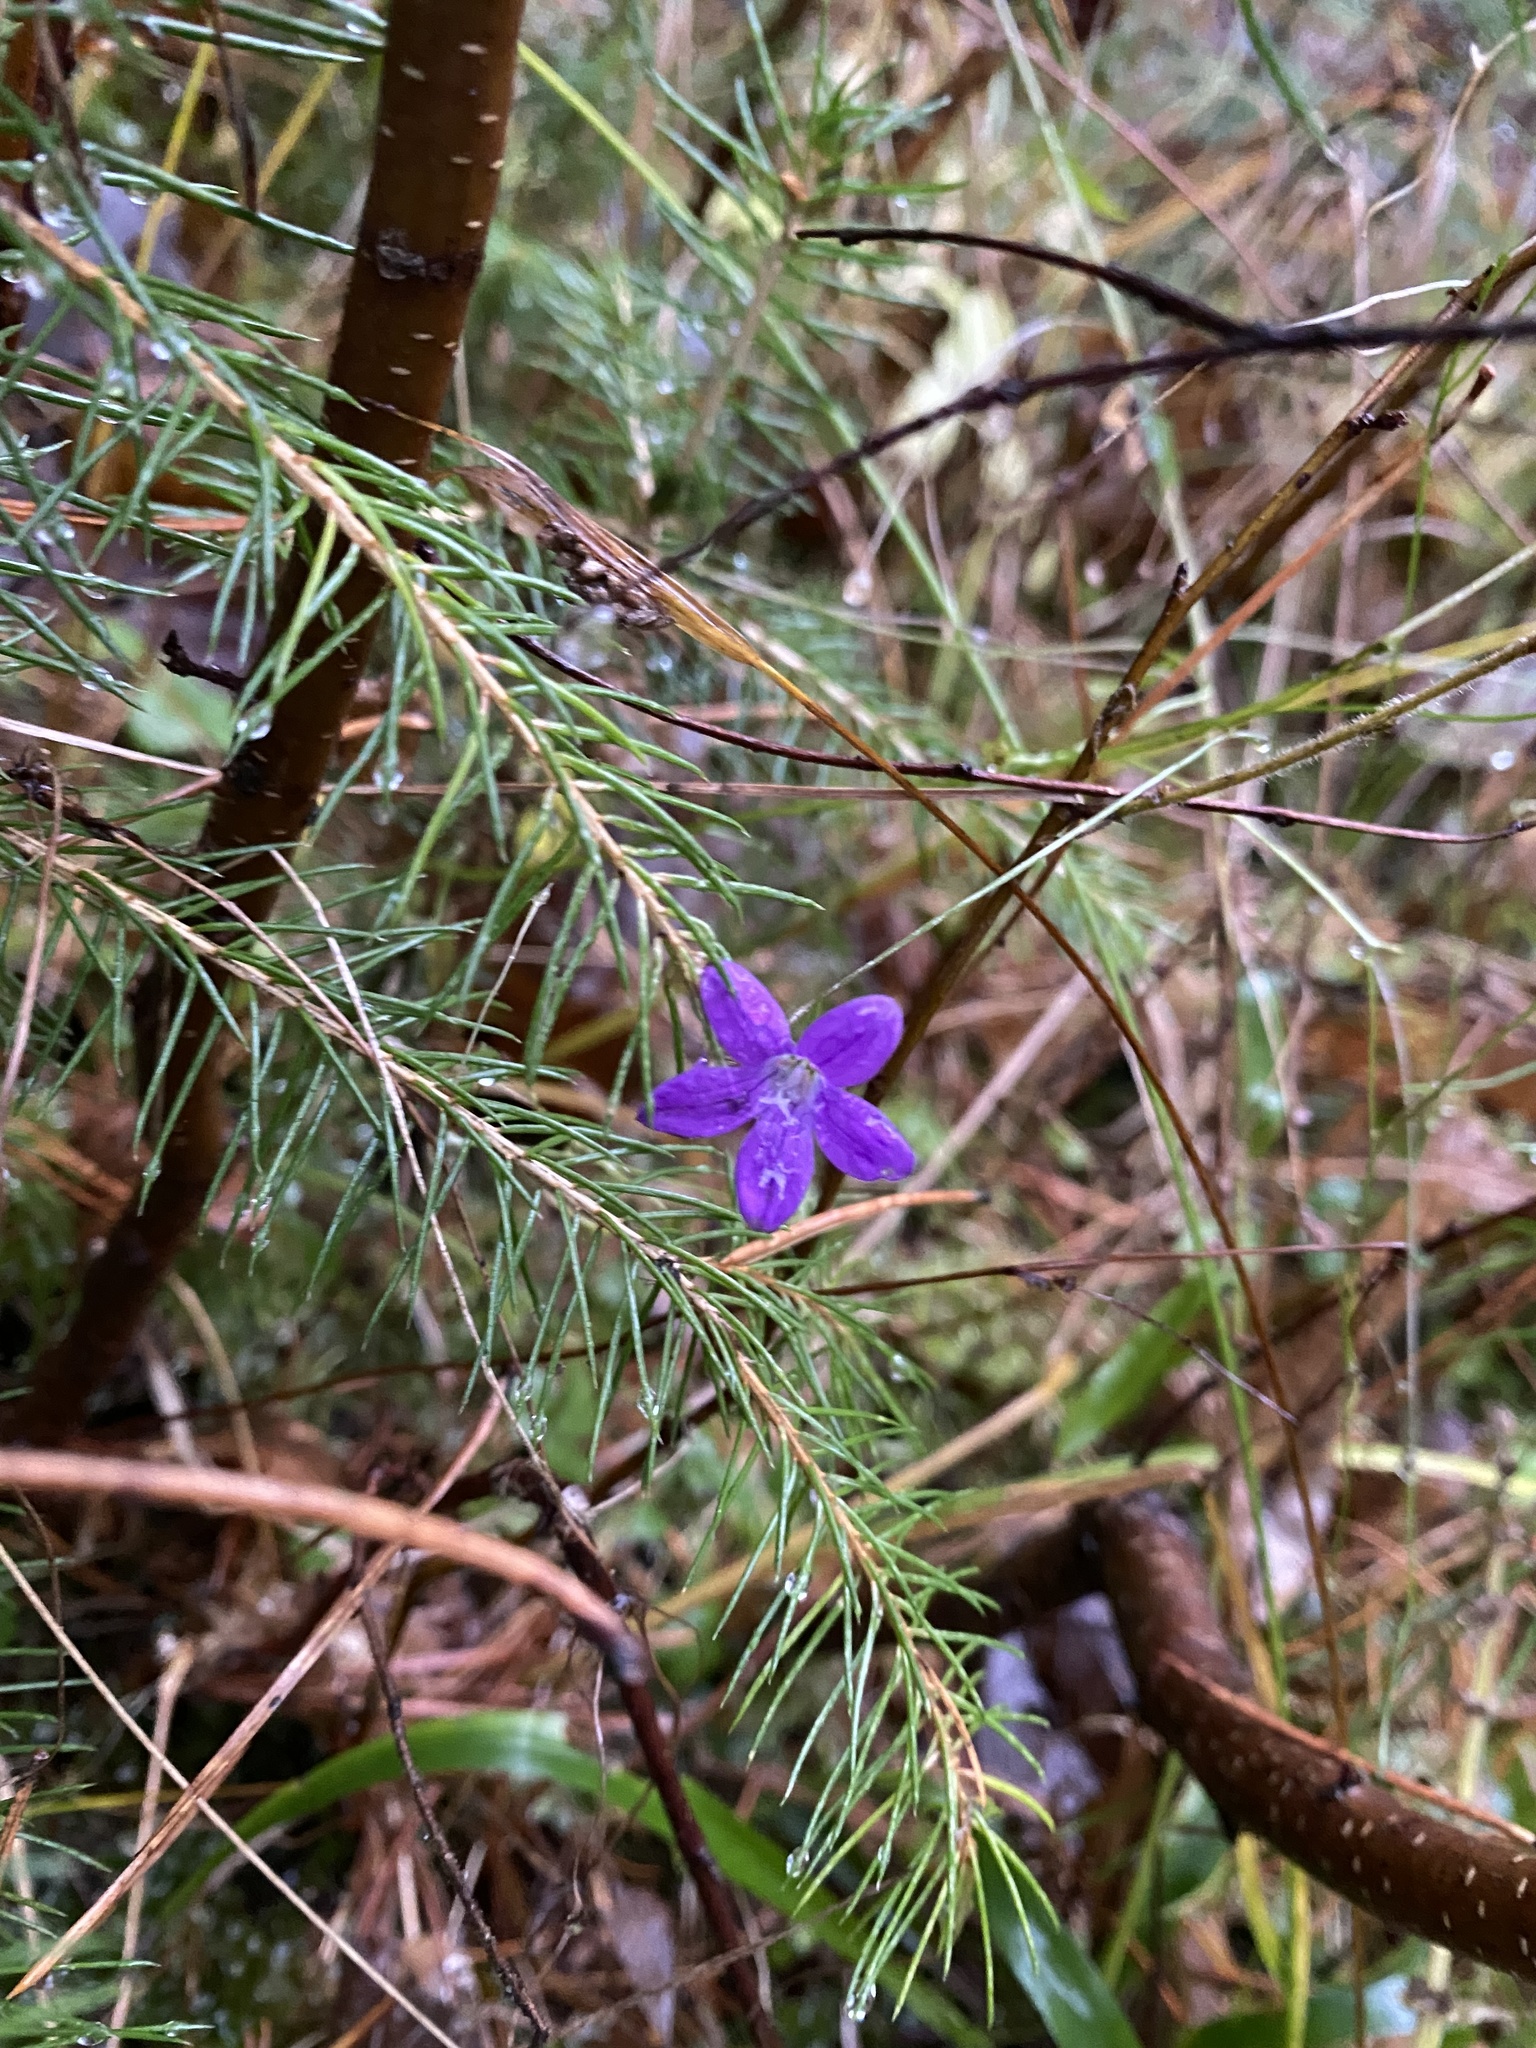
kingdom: Plantae
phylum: Tracheophyta
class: Magnoliopsida
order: Asterales
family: Campanulaceae
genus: Campanula
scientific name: Campanula patula
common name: Spreading bellflower
